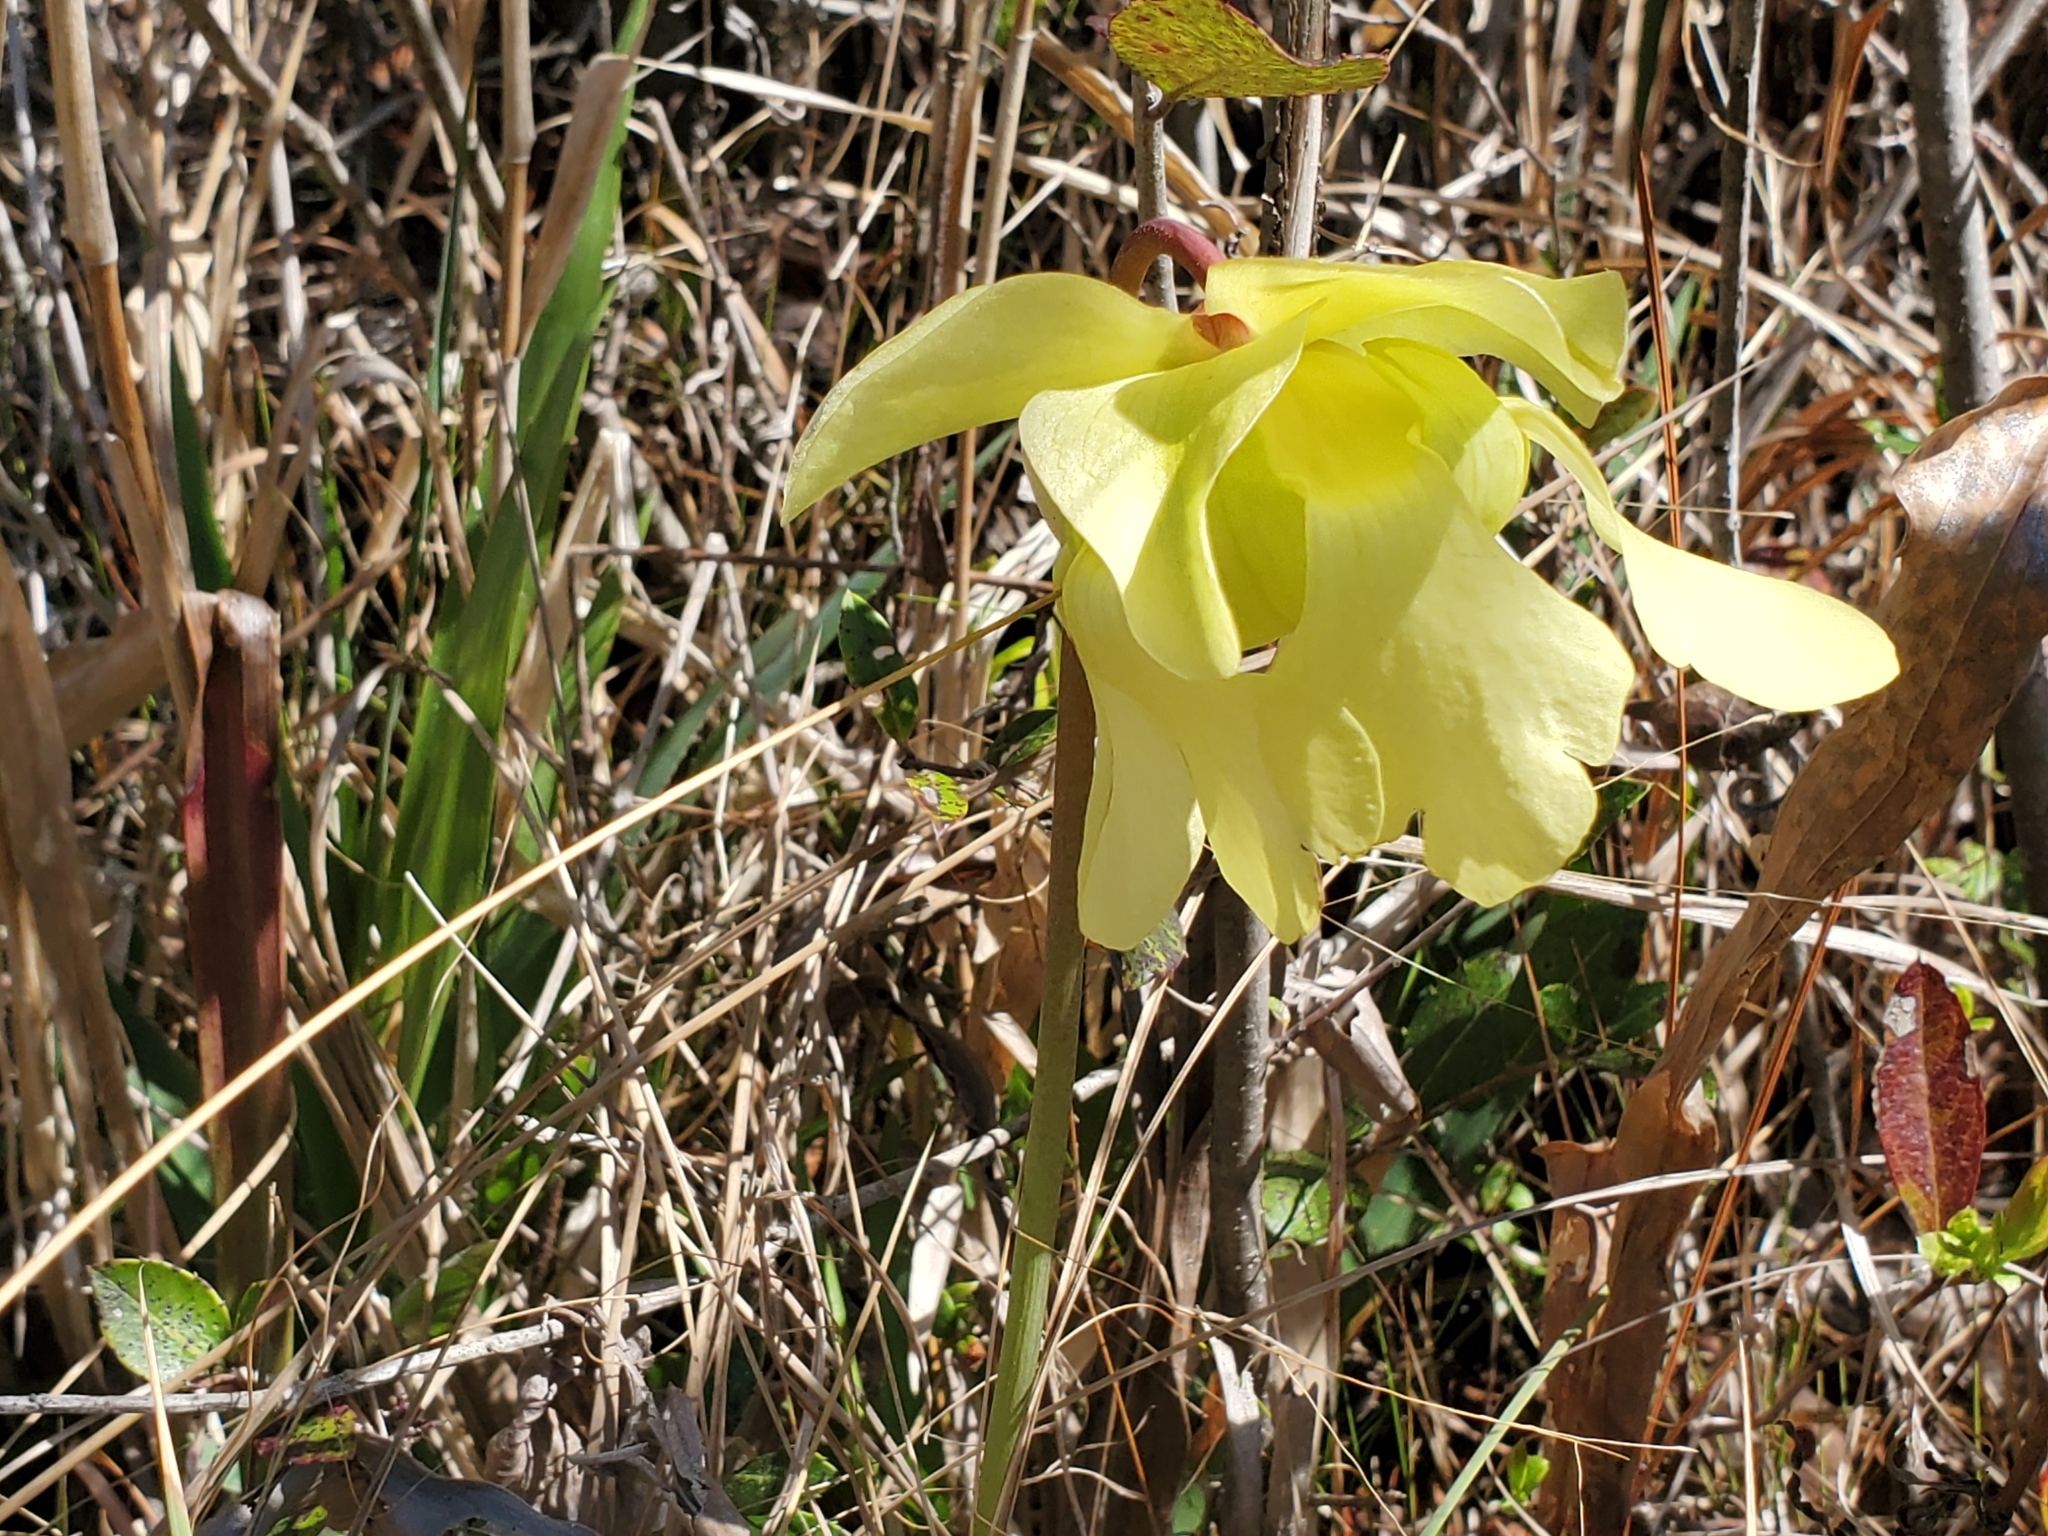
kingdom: Plantae
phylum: Tracheophyta
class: Magnoliopsida
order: Ericales
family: Sarraceniaceae
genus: Sarracenia
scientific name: Sarracenia alata
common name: Yellow trumpets
